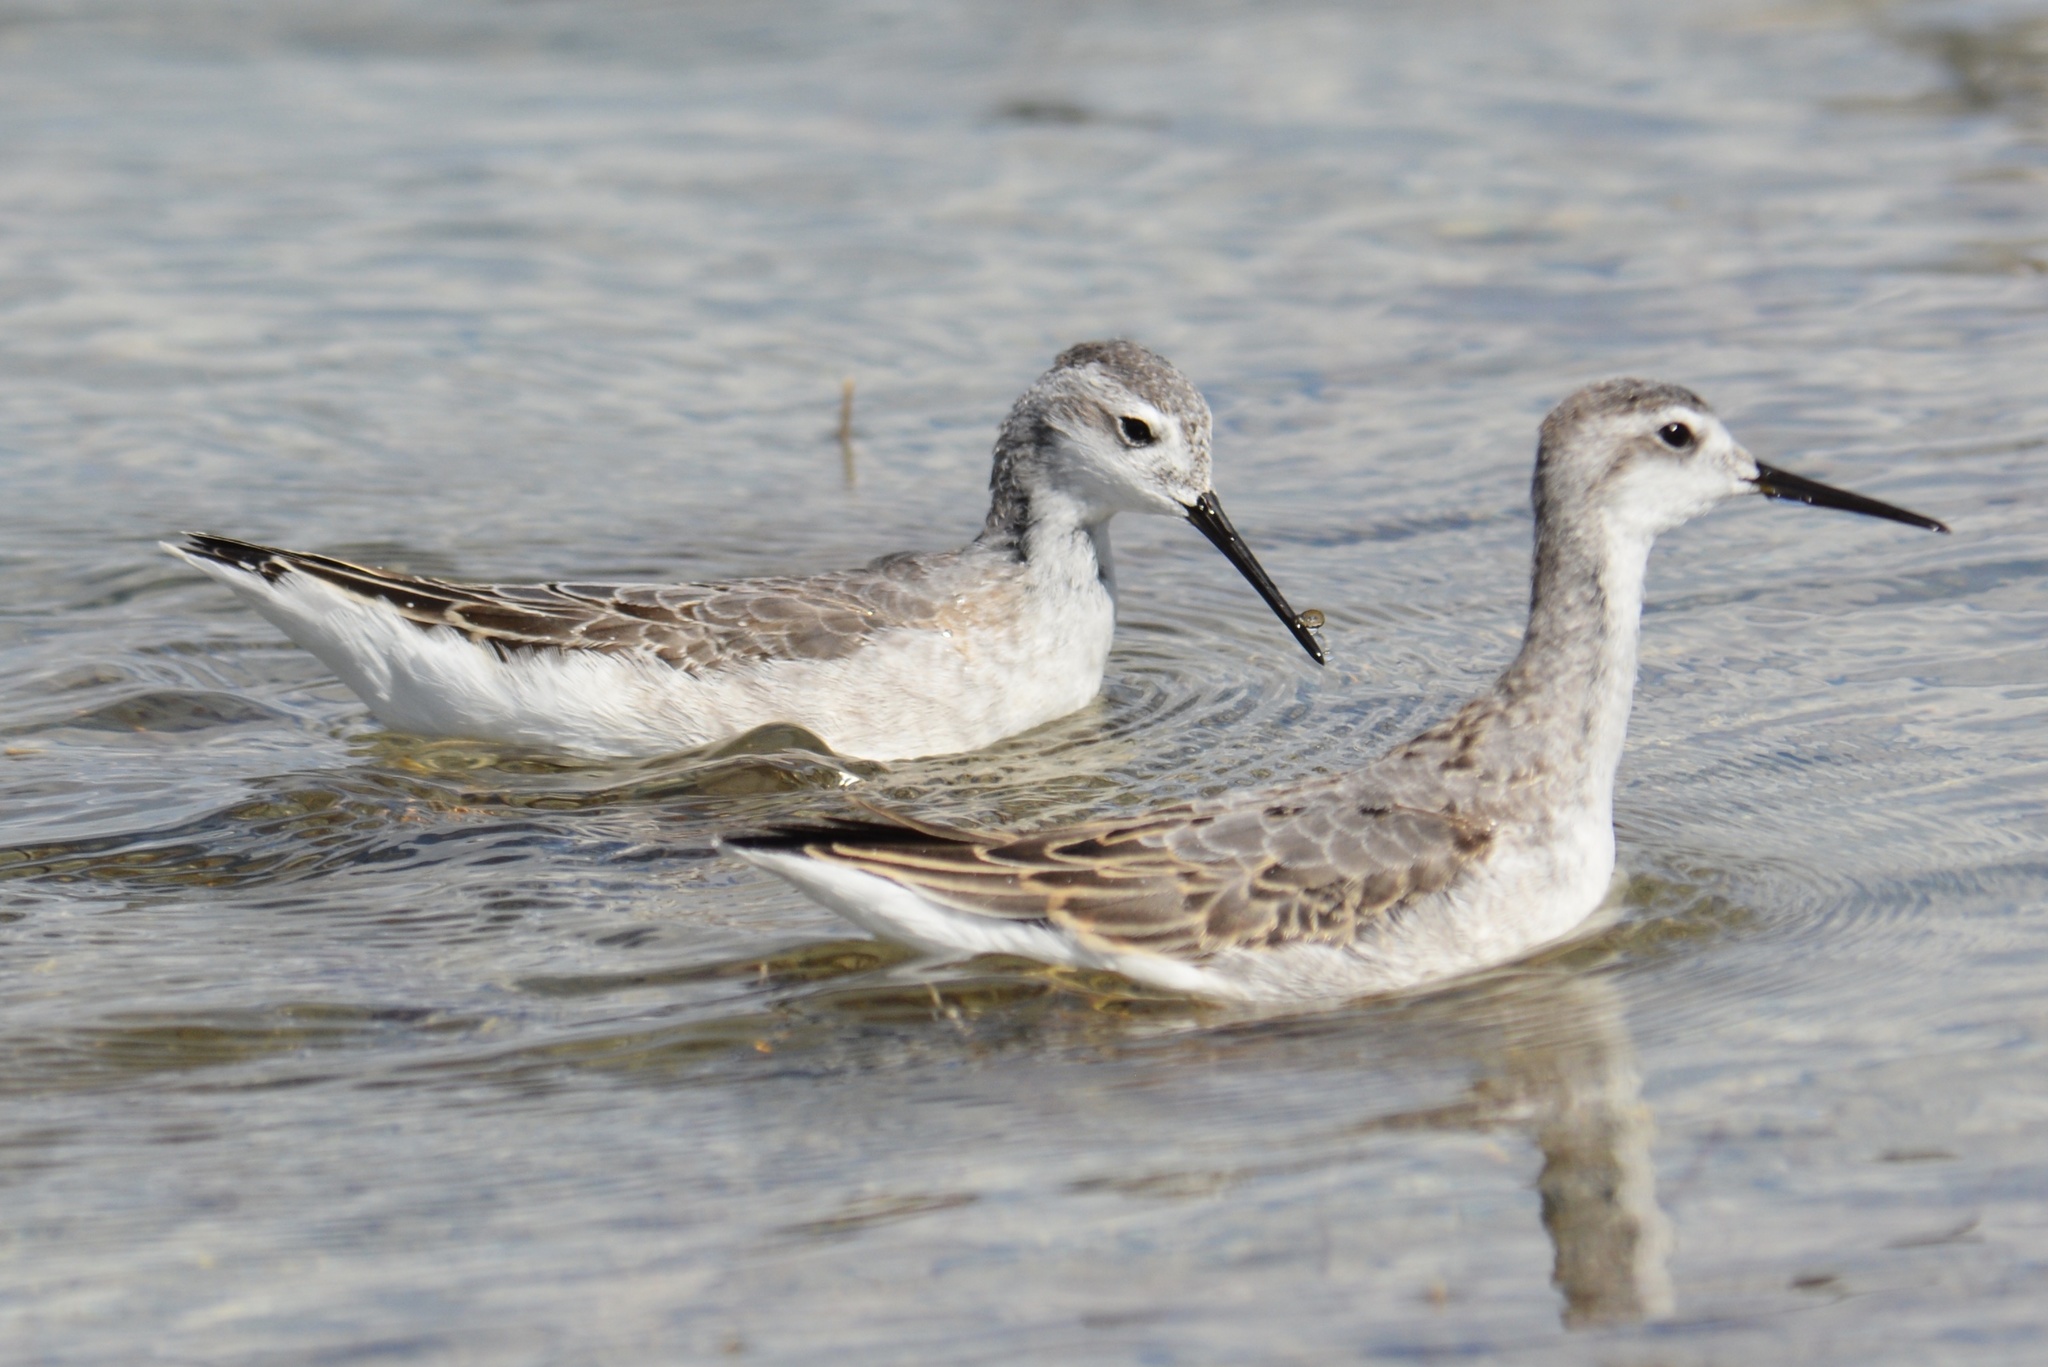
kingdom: Animalia
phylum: Chordata
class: Aves
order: Charadriiformes
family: Scolopacidae
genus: Phalaropus
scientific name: Phalaropus tricolor
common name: Wilson's phalarope
